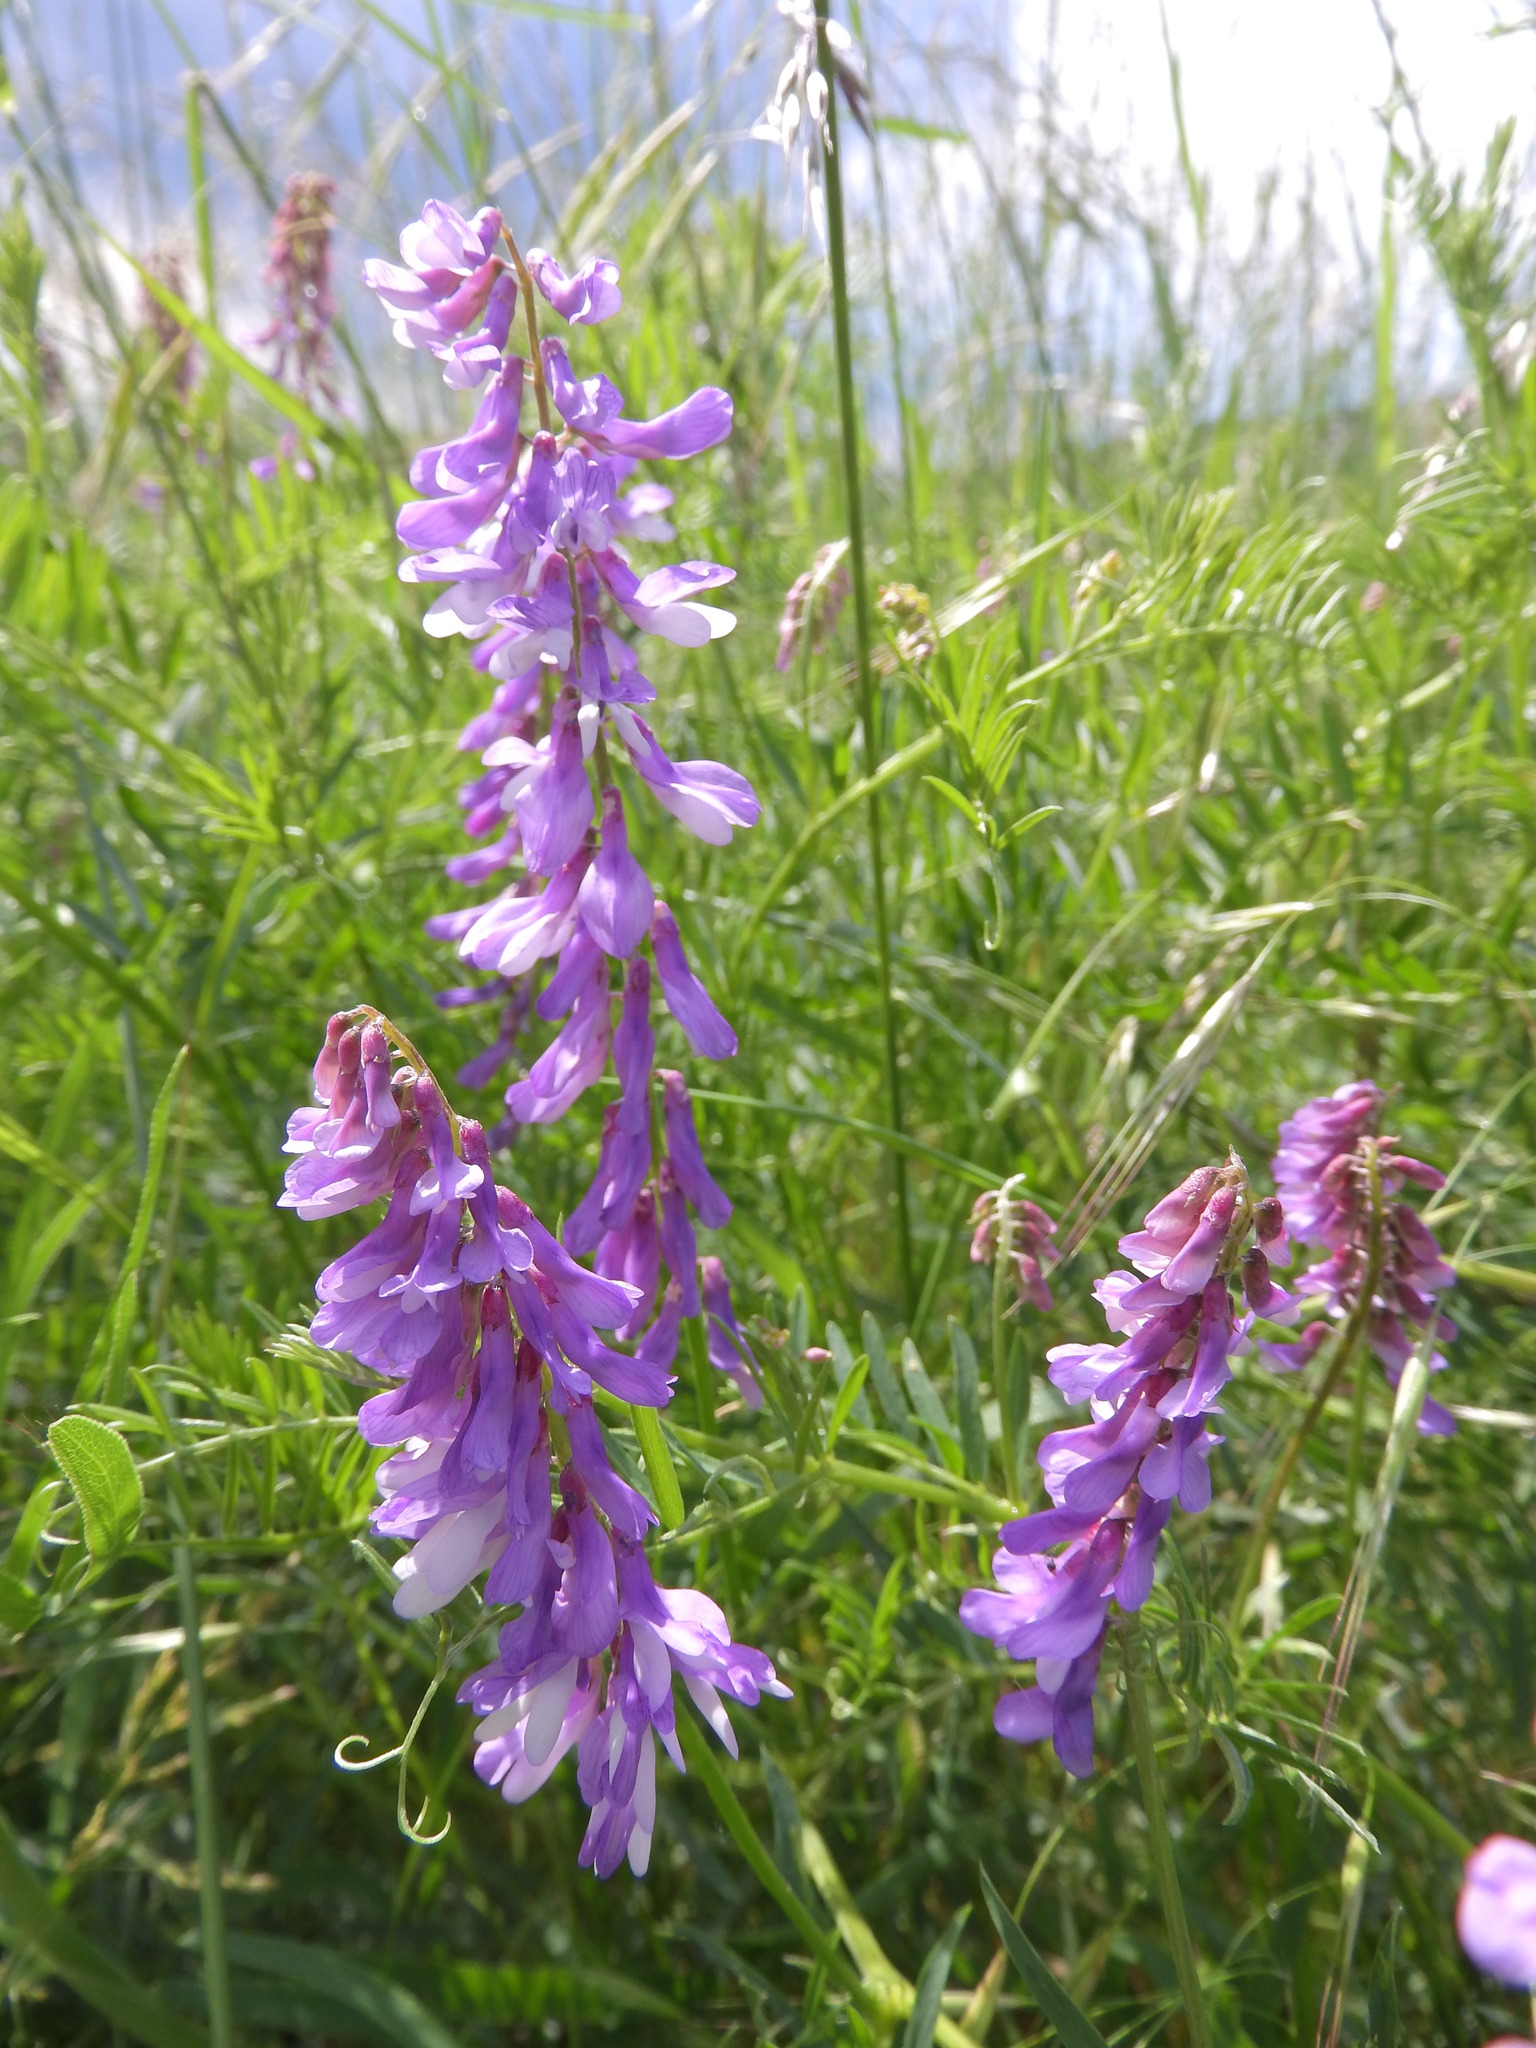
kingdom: Plantae
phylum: Tracheophyta
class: Magnoliopsida
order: Fabales
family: Fabaceae
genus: Vicia
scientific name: Vicia tenuifolia
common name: Fine-leaved vetch
